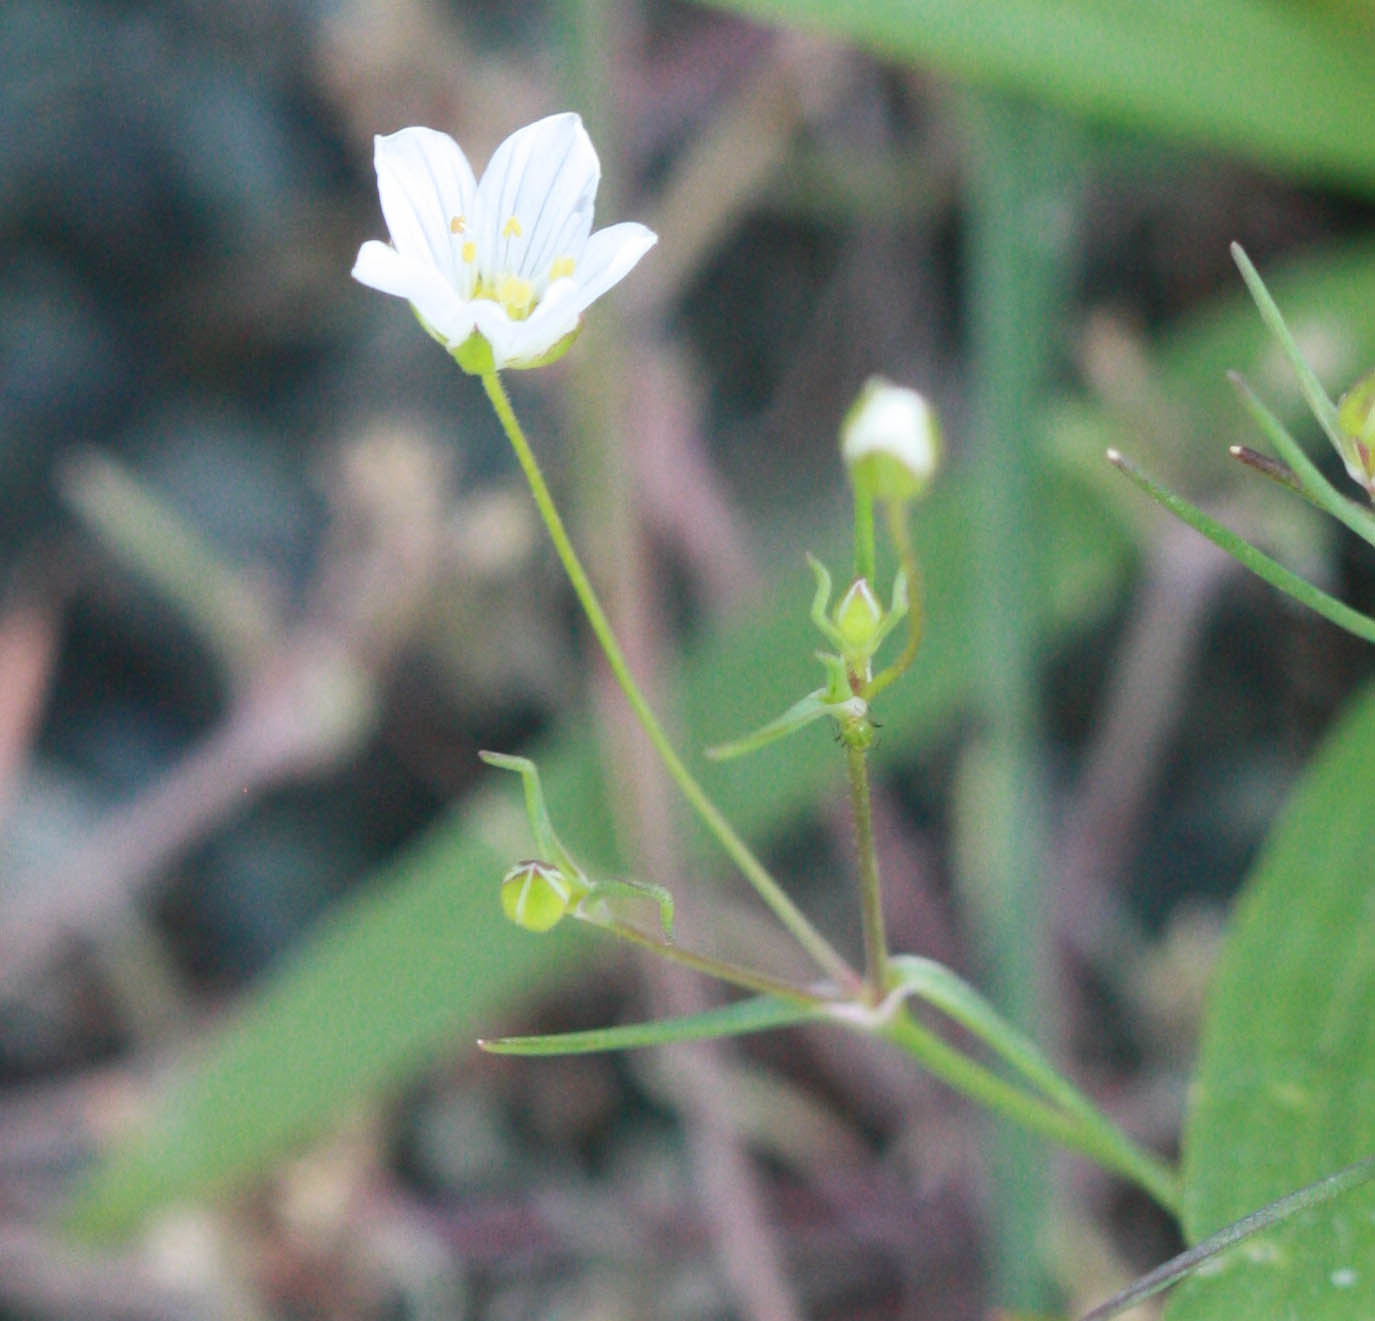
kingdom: Plantae
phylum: Tracheophyta
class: Magnoliopsida
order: Caryophyllales
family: Caryophyllaceae
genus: Sabulina
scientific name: Sabulina douglasii
